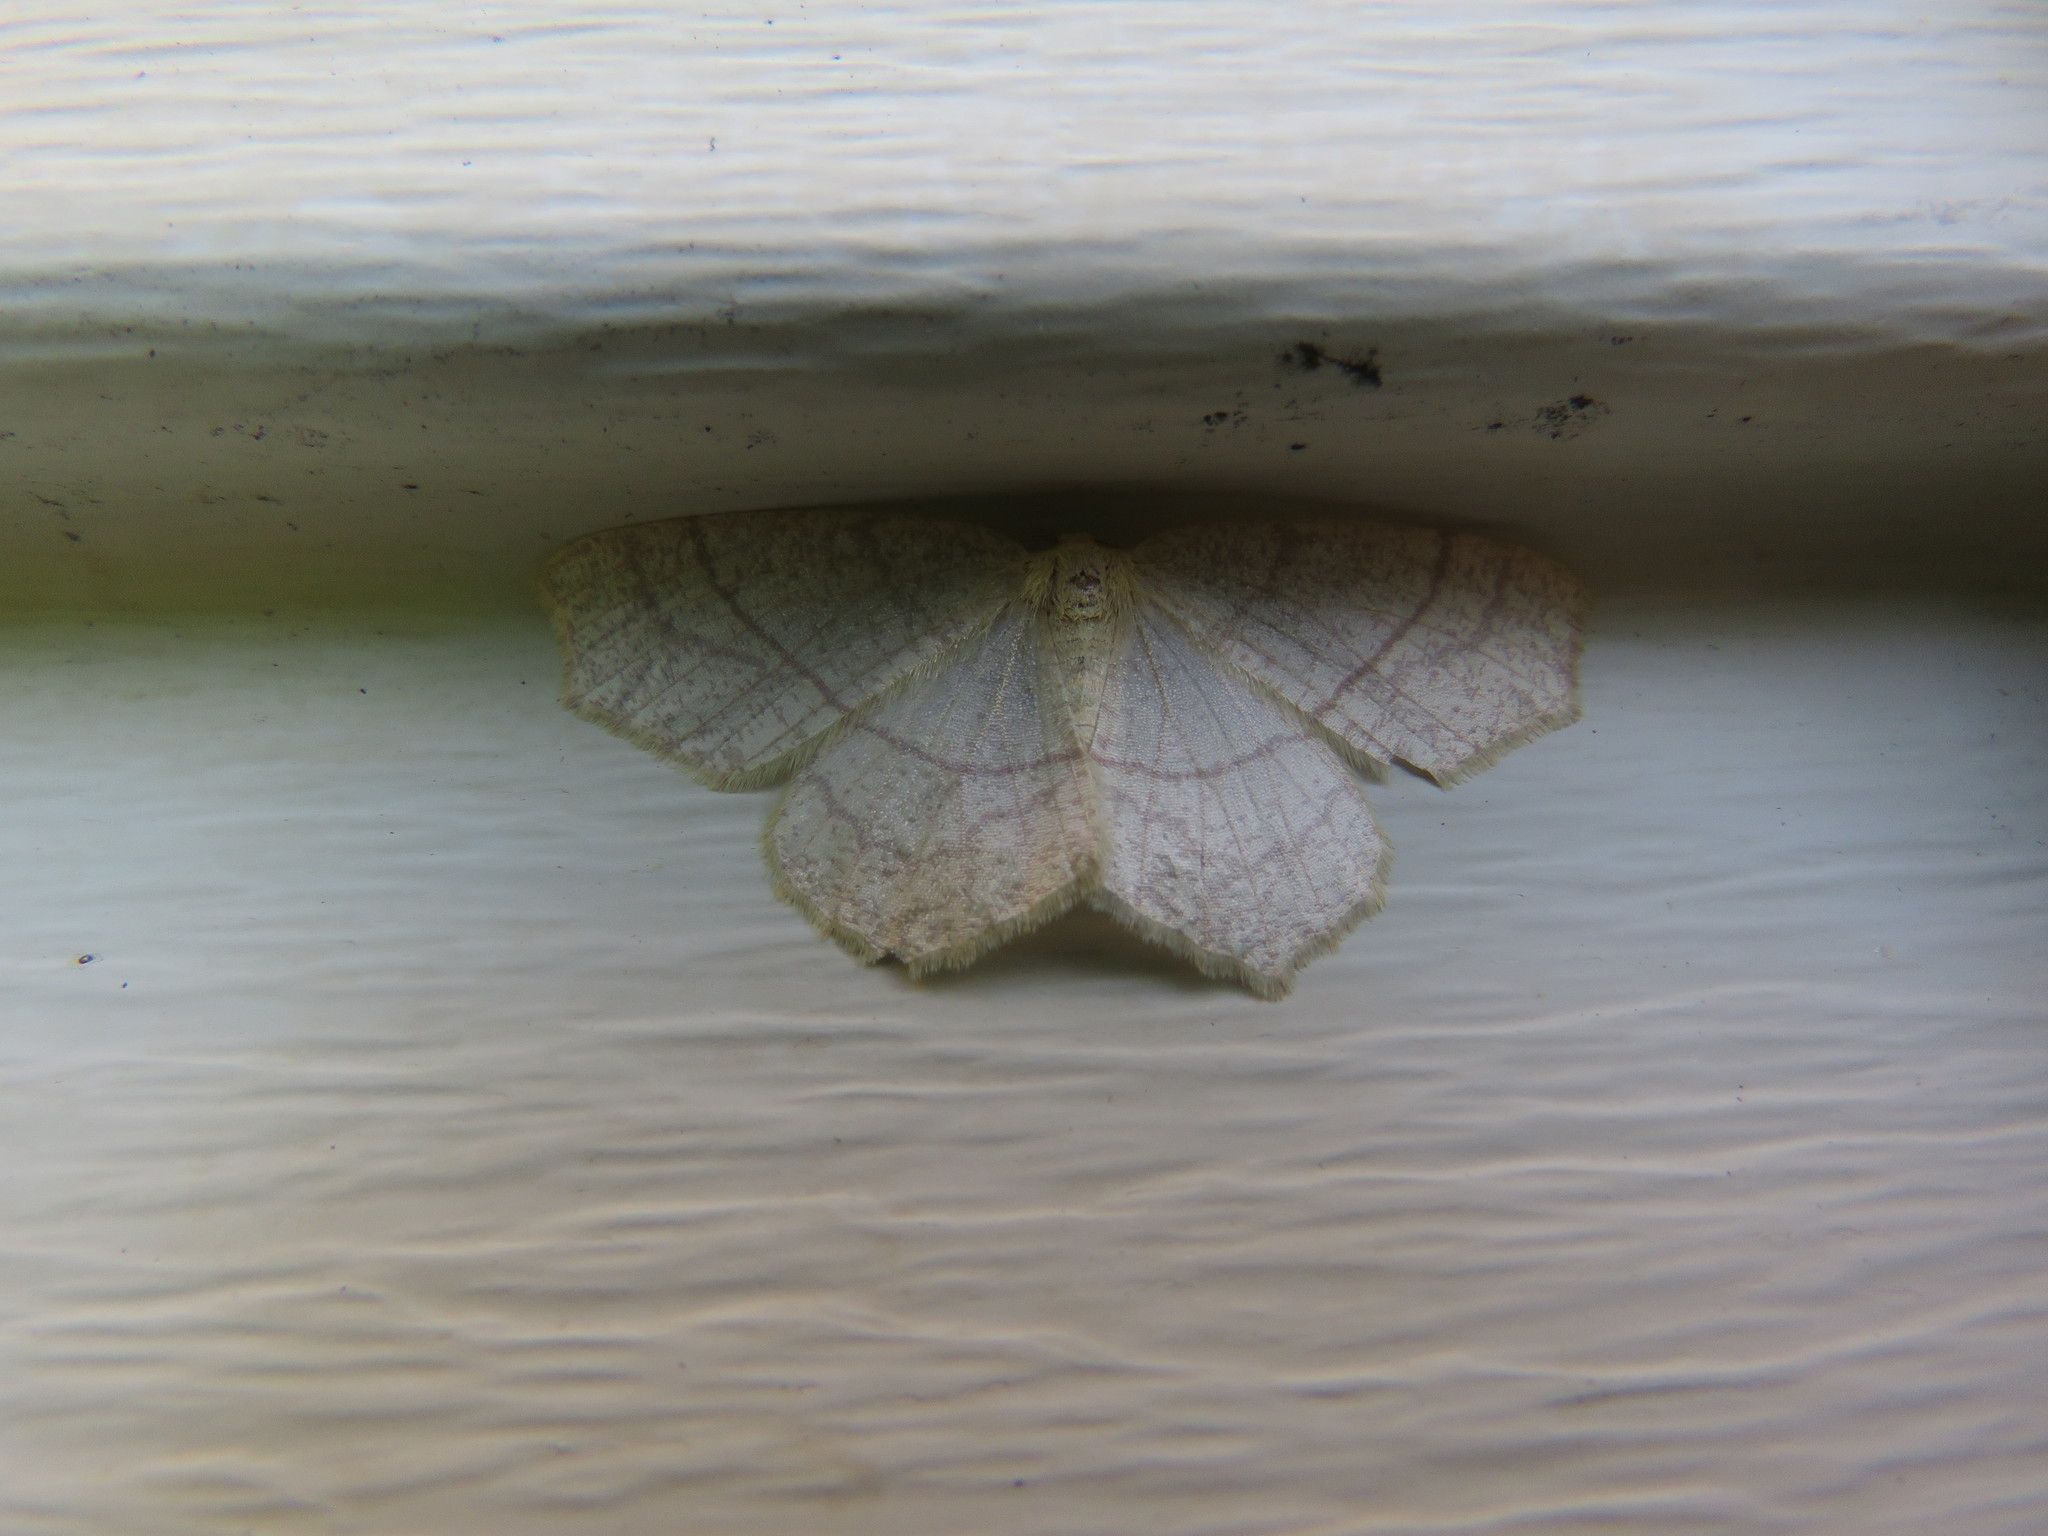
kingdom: Animalia
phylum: Arthropoda
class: Insecta
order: Lepidoptera
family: Geometridae
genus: Besma
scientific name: Besma endropiaria
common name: Straw besma
